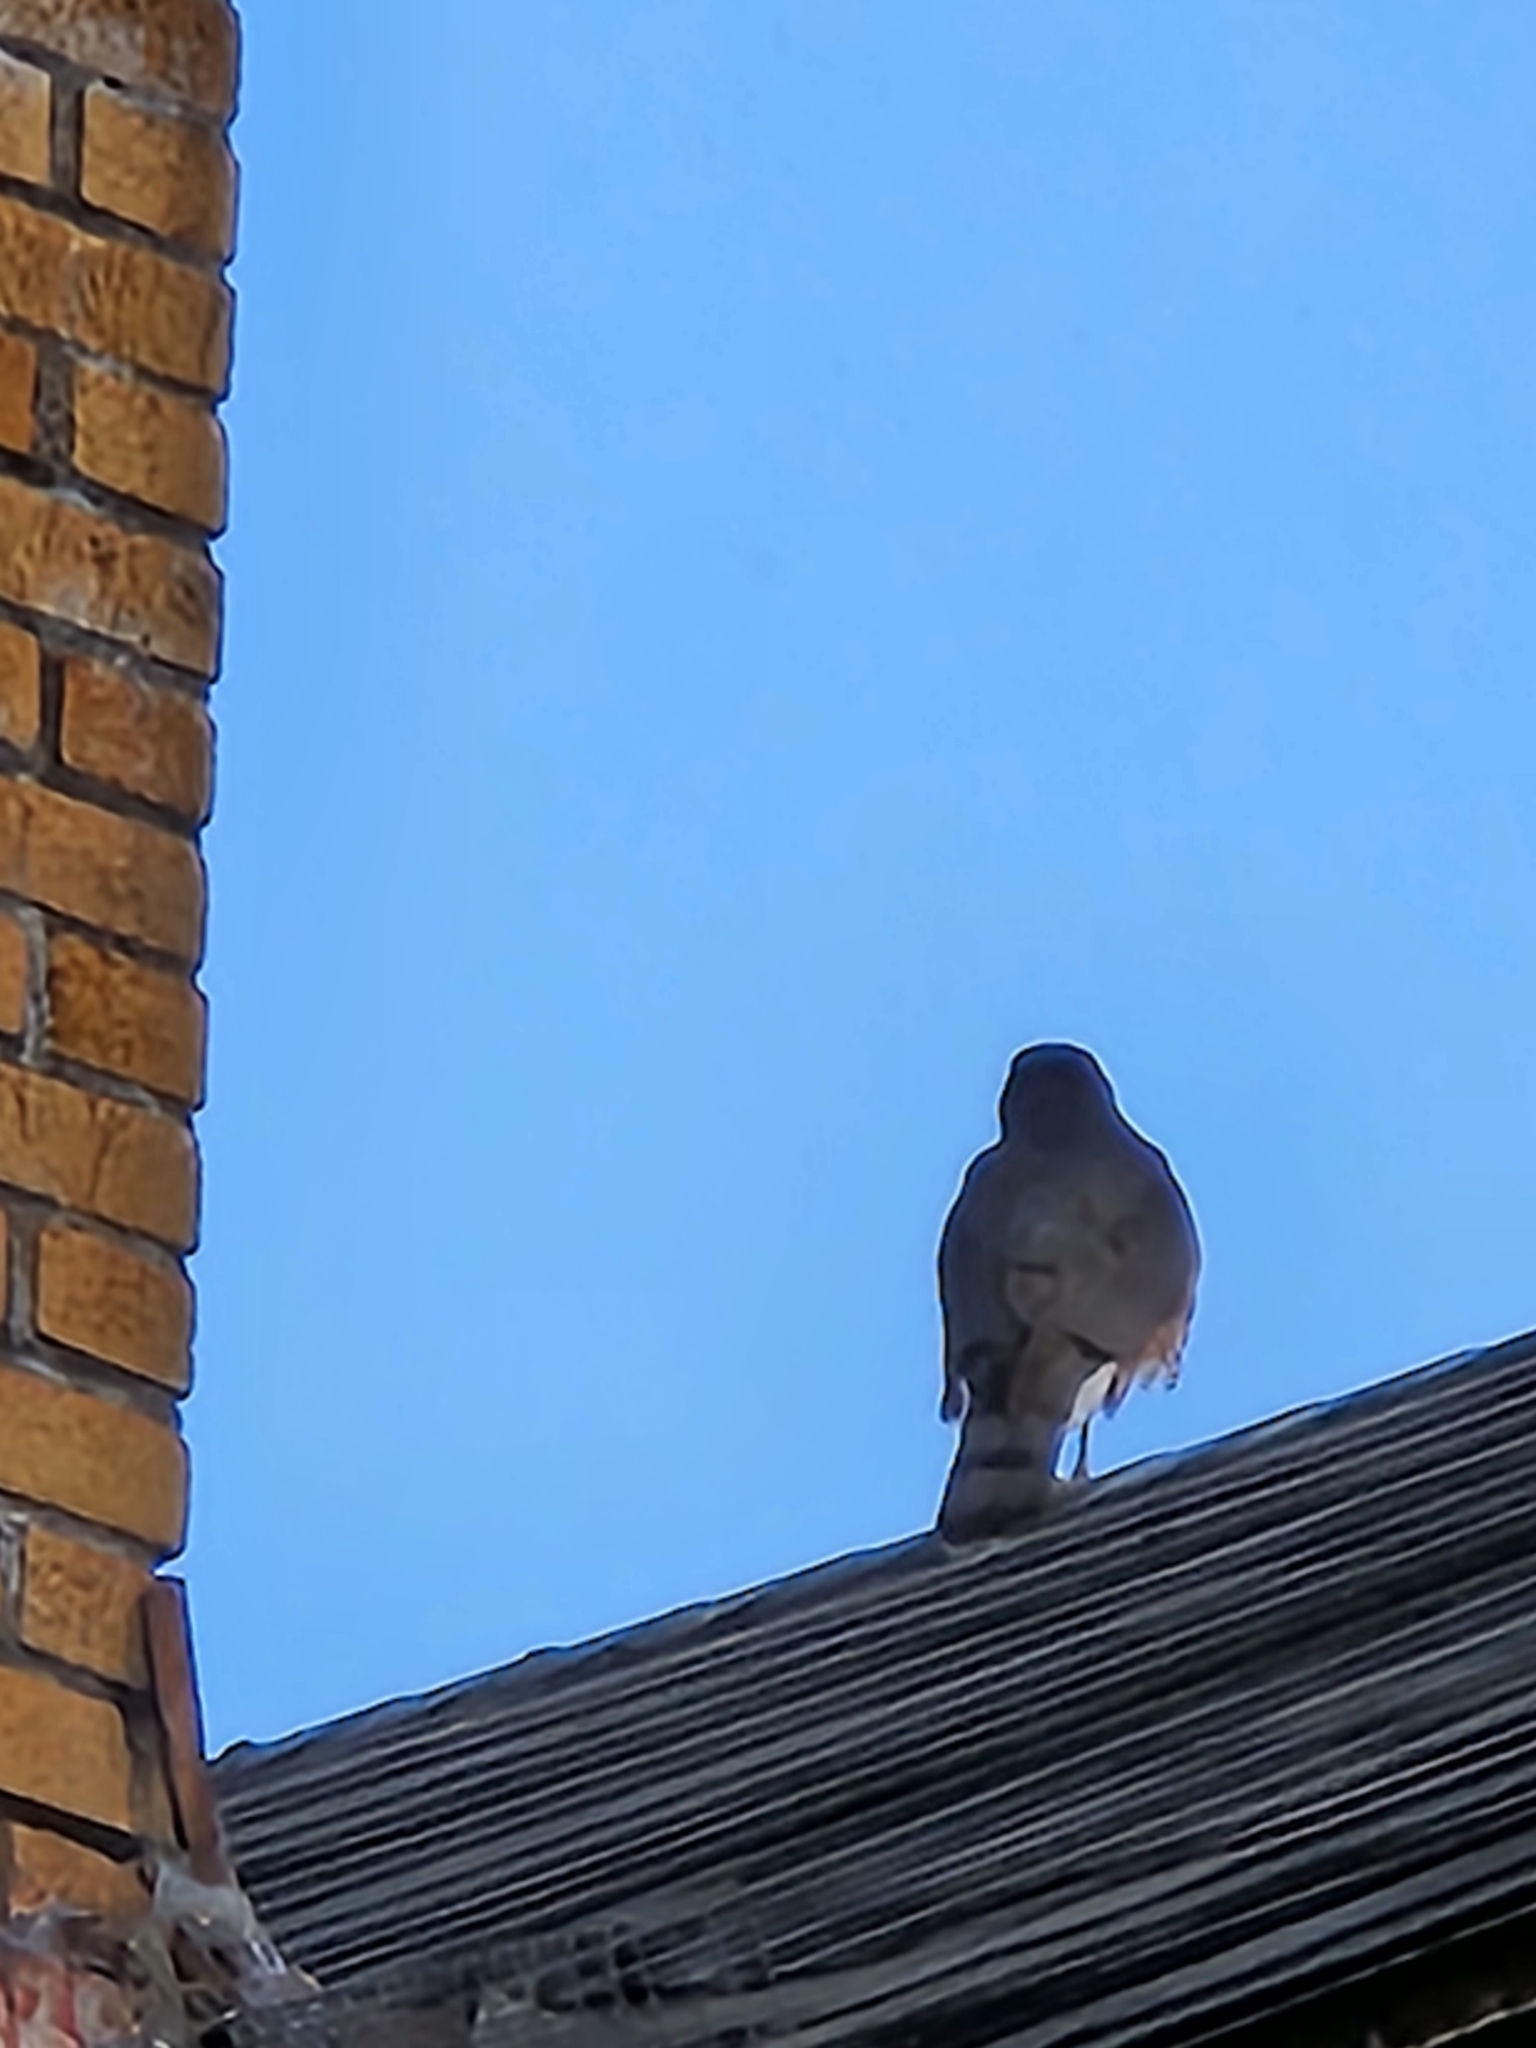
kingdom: Animalia
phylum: Chordata
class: Aves
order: Accipitriformes
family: Accipitridae
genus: Accipiter
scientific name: Accipiter cooperii
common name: Cooper's hawk
